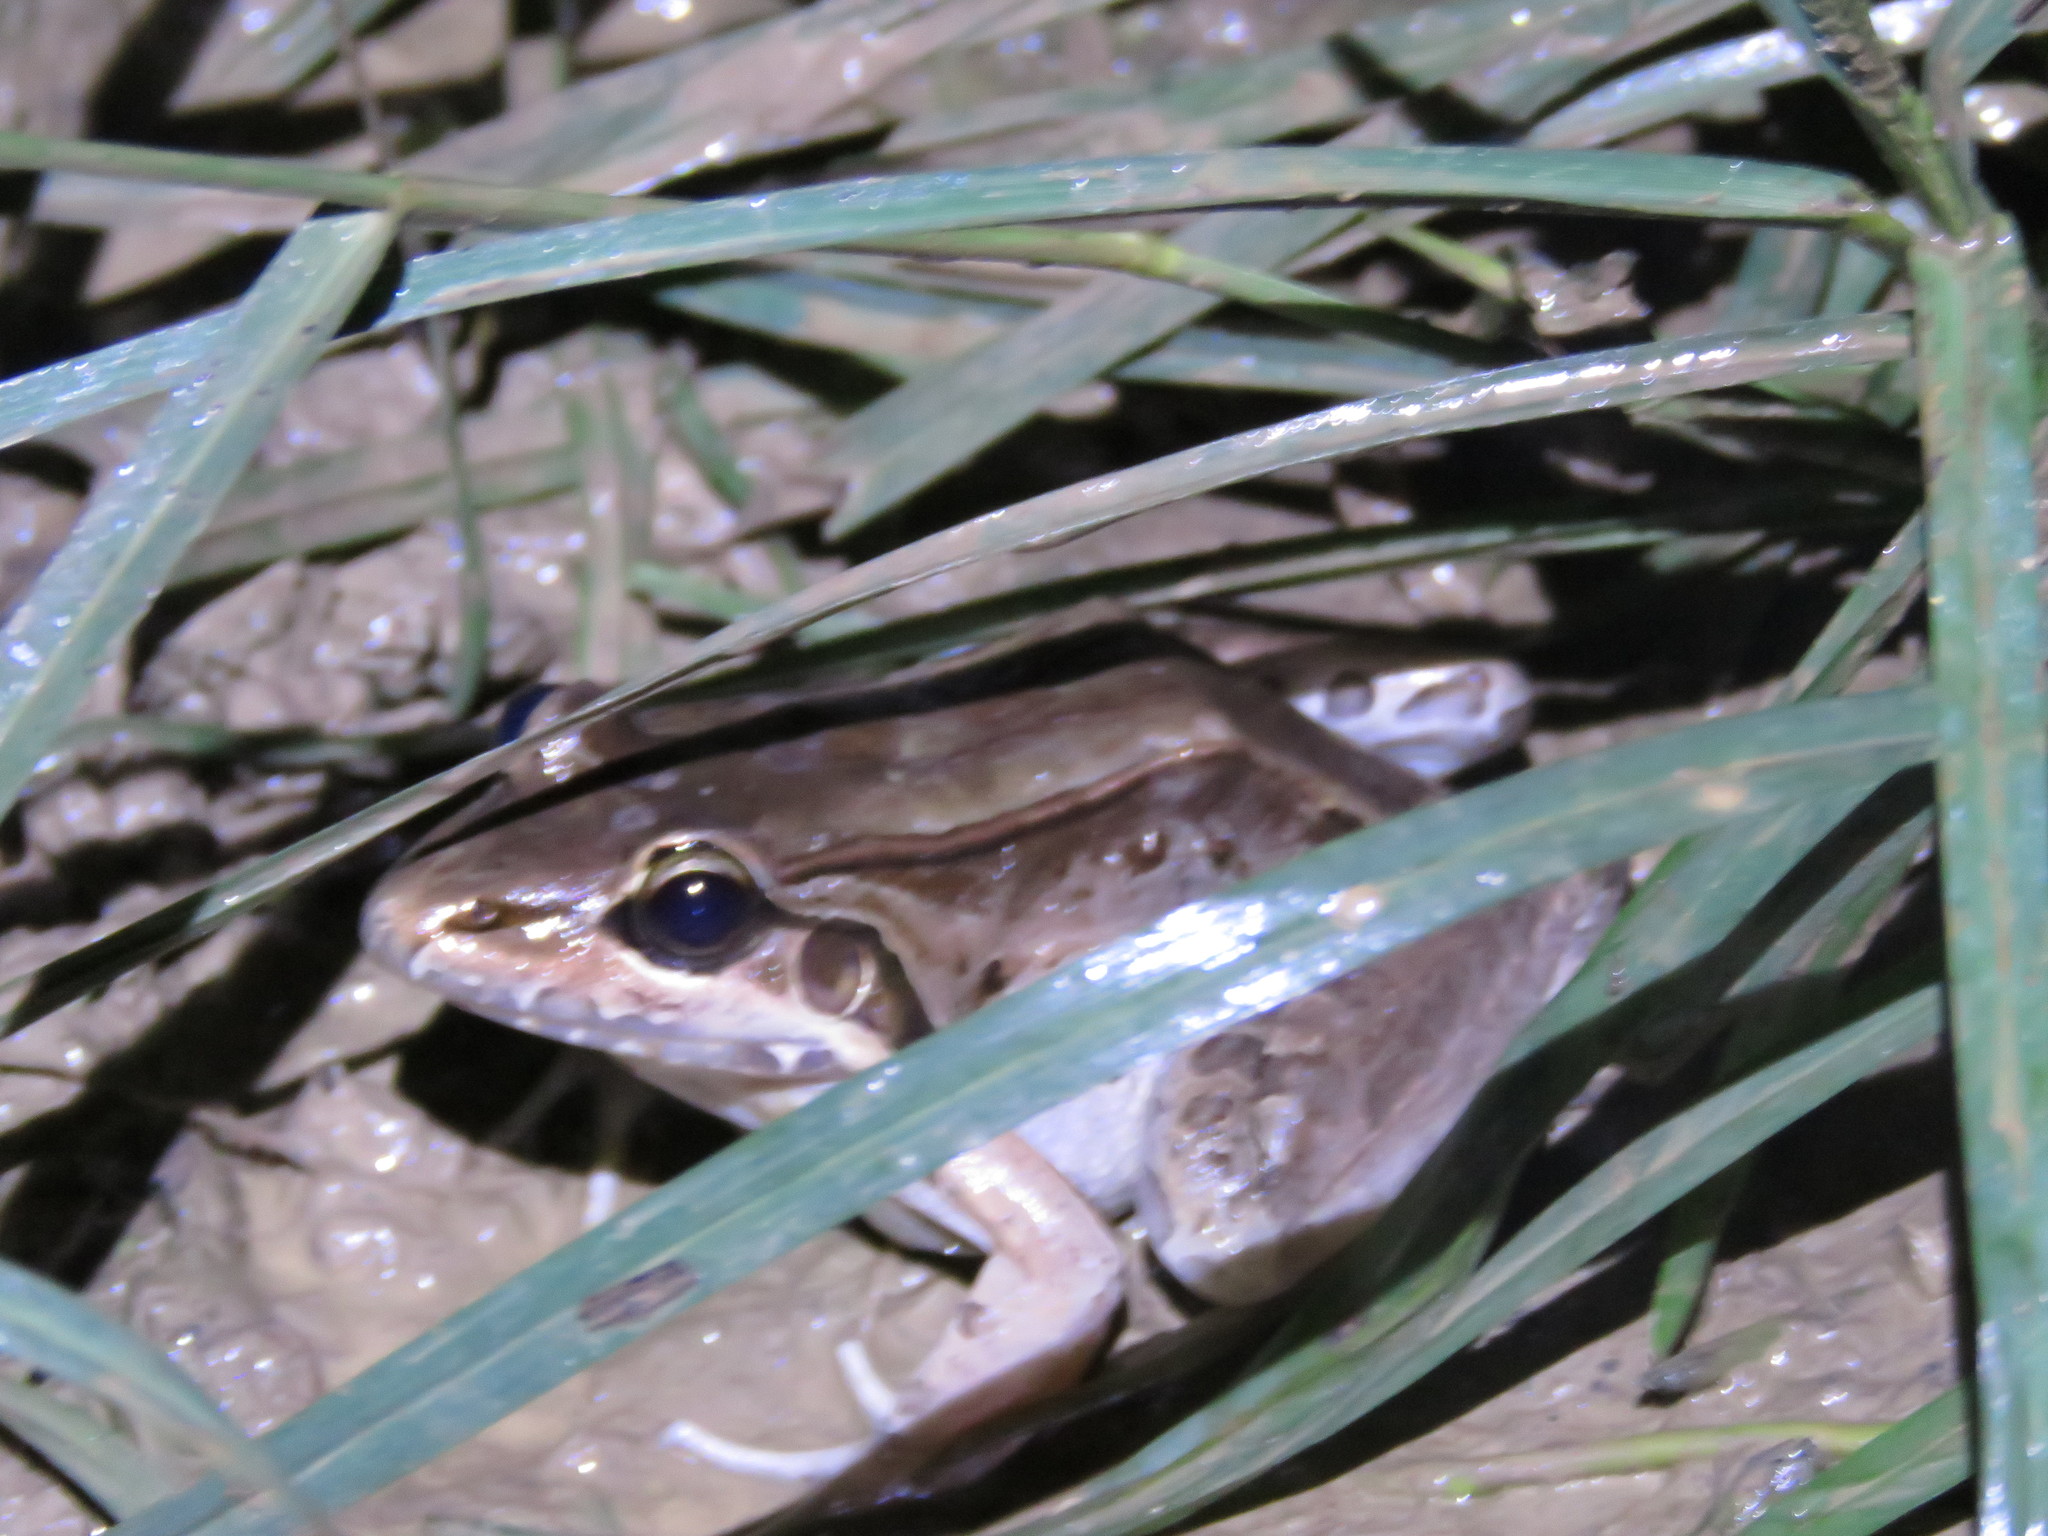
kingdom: Animalia
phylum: Chordata
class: Amphibia
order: Anura
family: Leptodactylidae
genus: Leptodactylus
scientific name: Leptodactylus bolivianus
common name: Bolivian white-lipped frog
